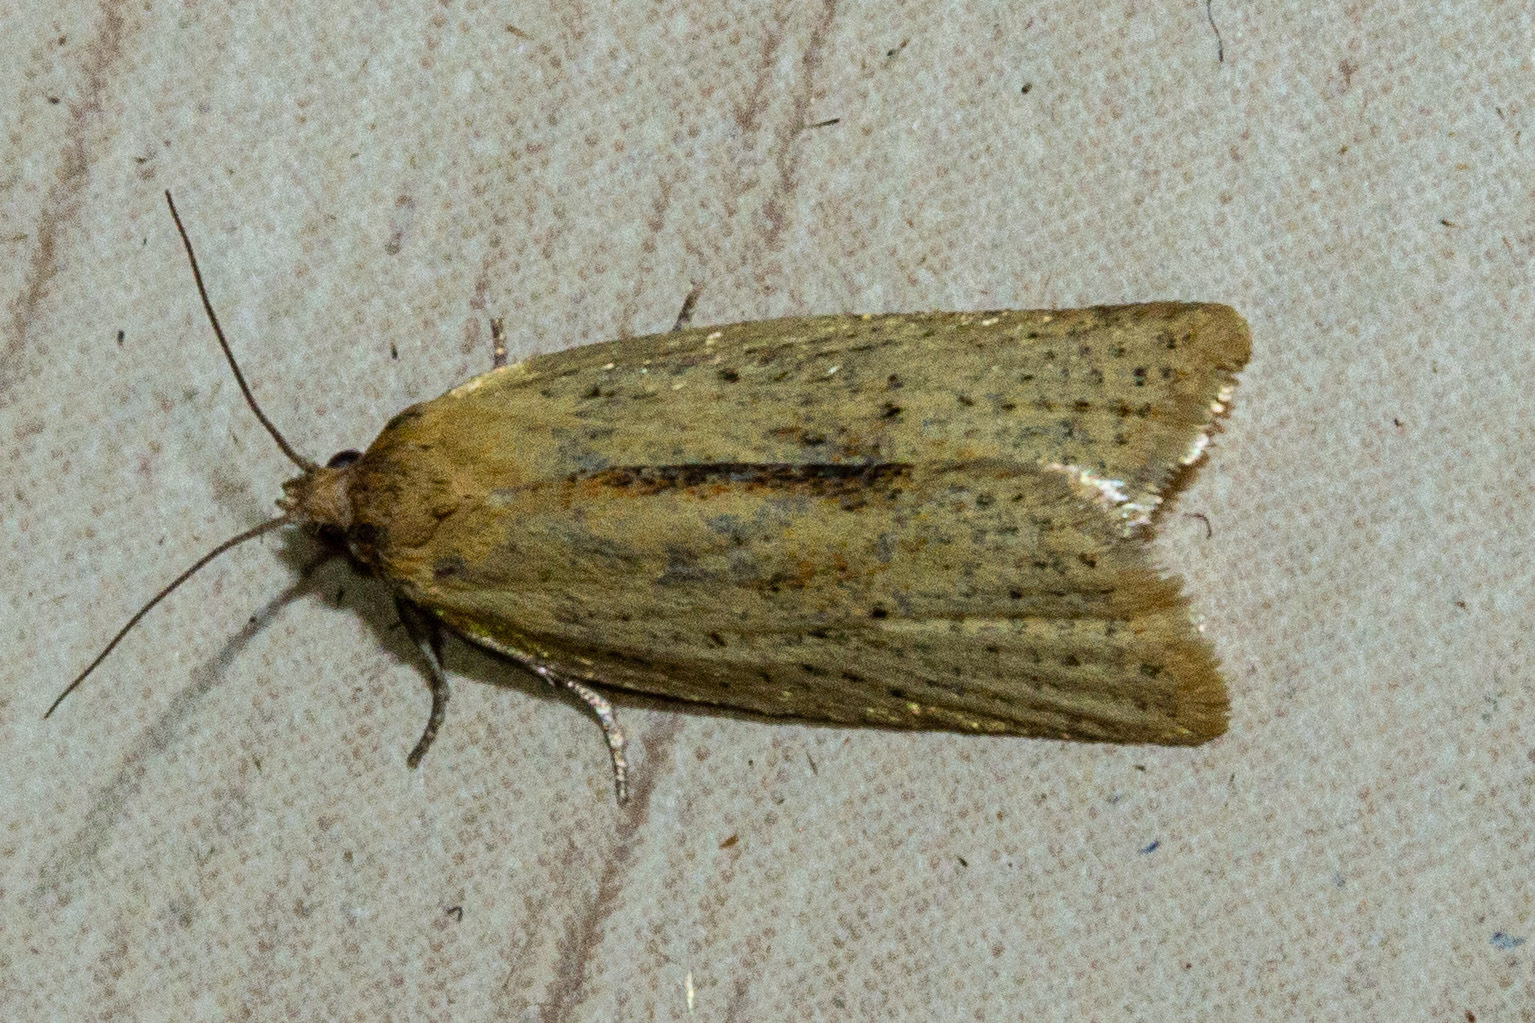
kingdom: Animalia
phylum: Arthropoda
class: Insecta
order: Lepidoptera
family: Tortricidae
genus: Clepsis
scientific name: Clepsis
